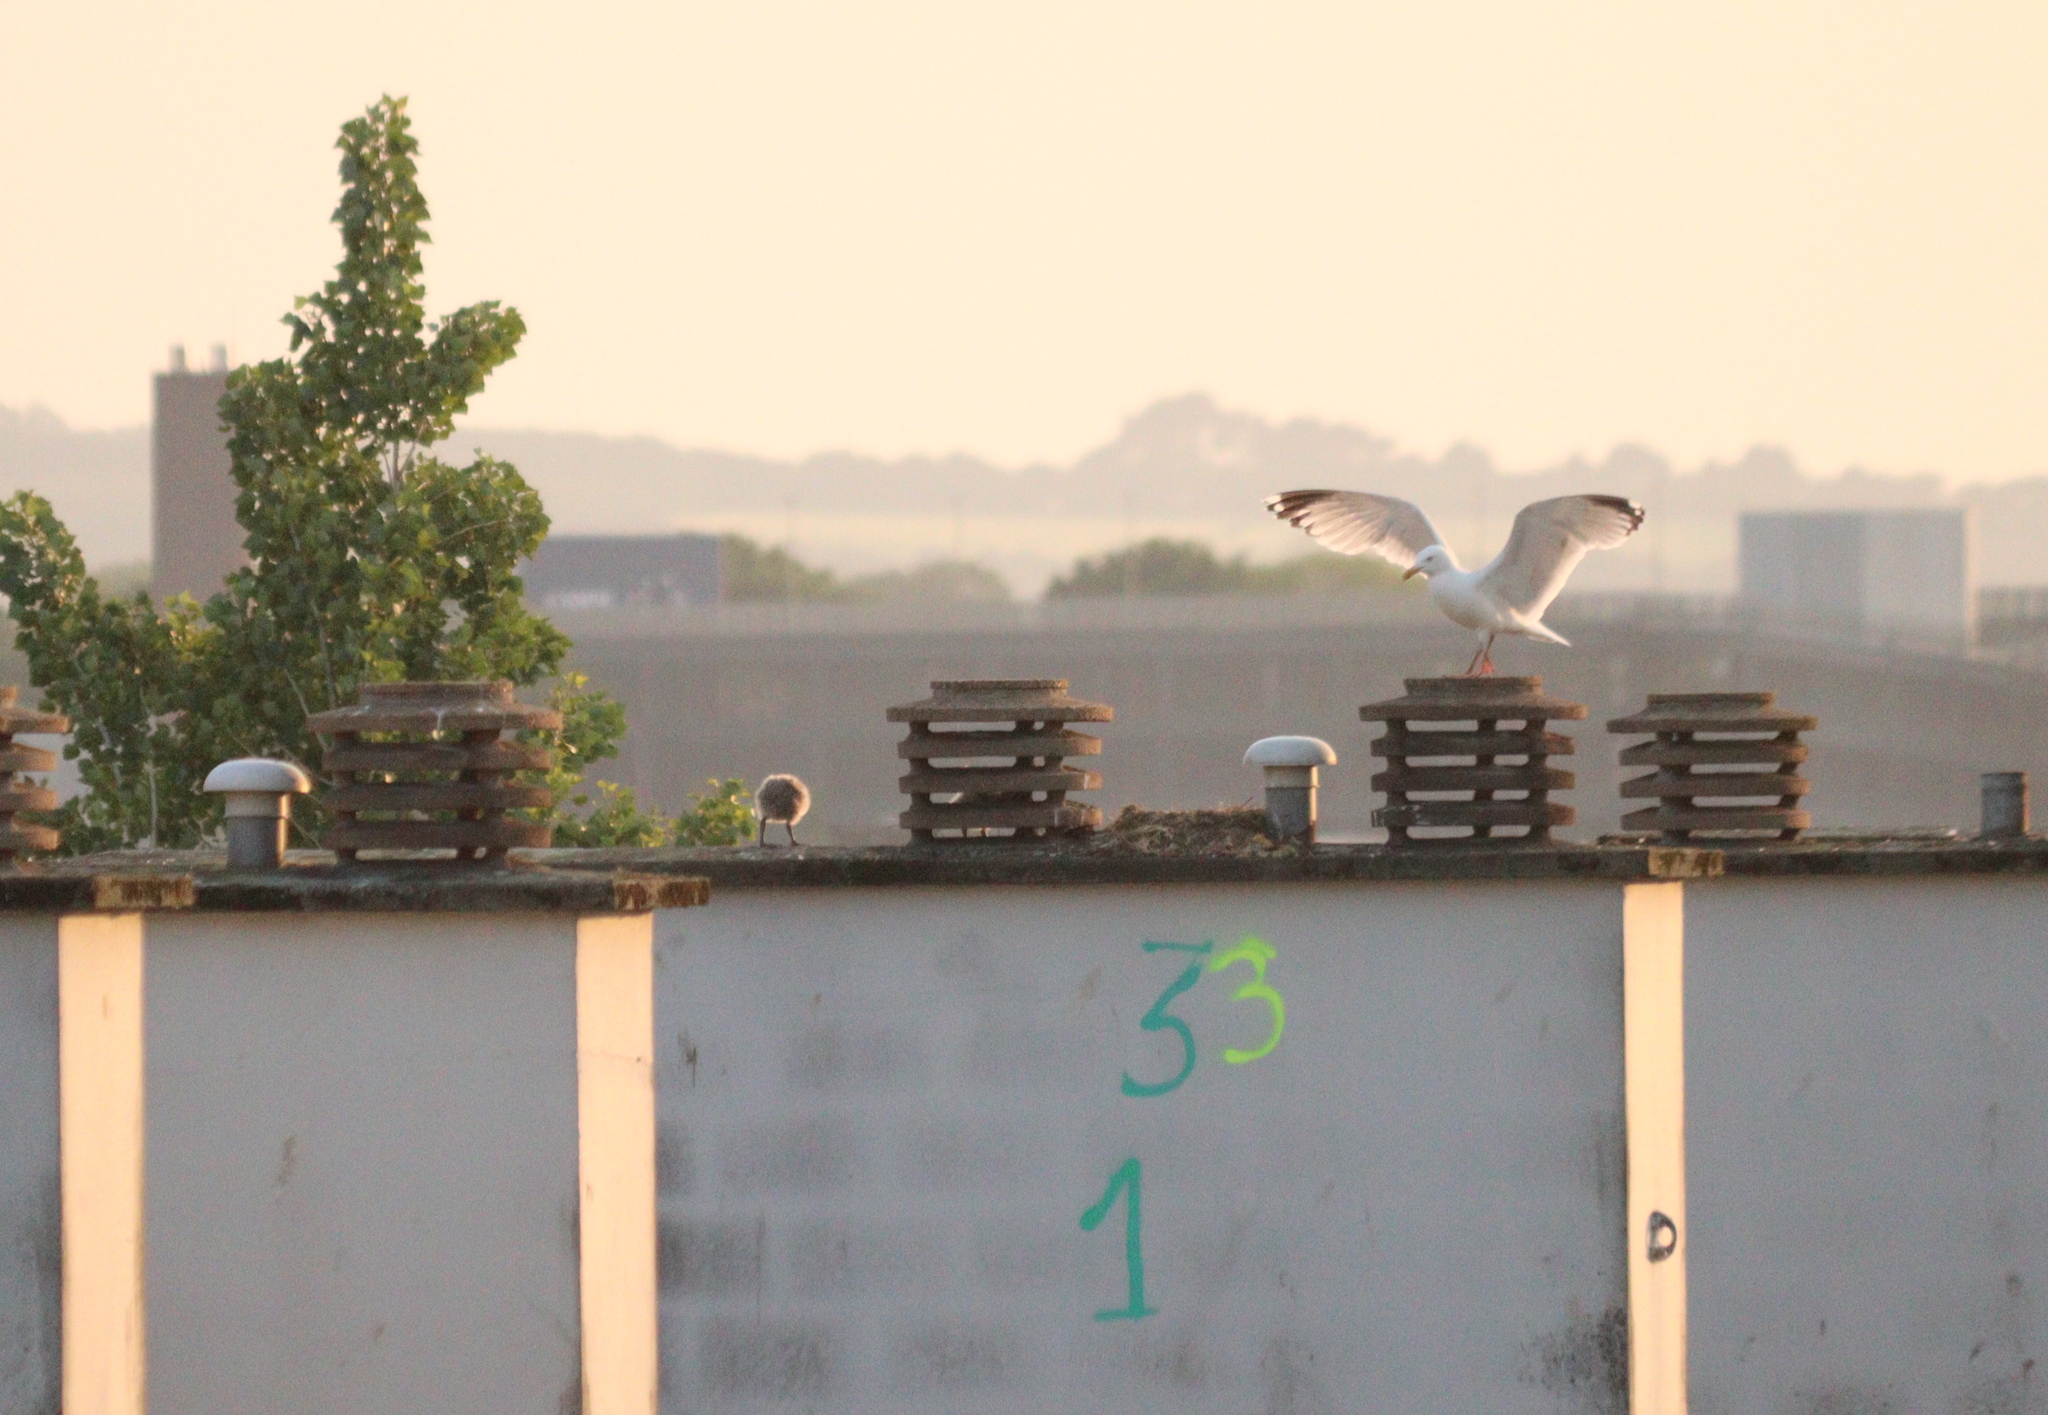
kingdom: Animalia
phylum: Chordata
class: Aves
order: Charadriiformes
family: Laridae
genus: Larus
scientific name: Larus argentatus
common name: Herring gull
